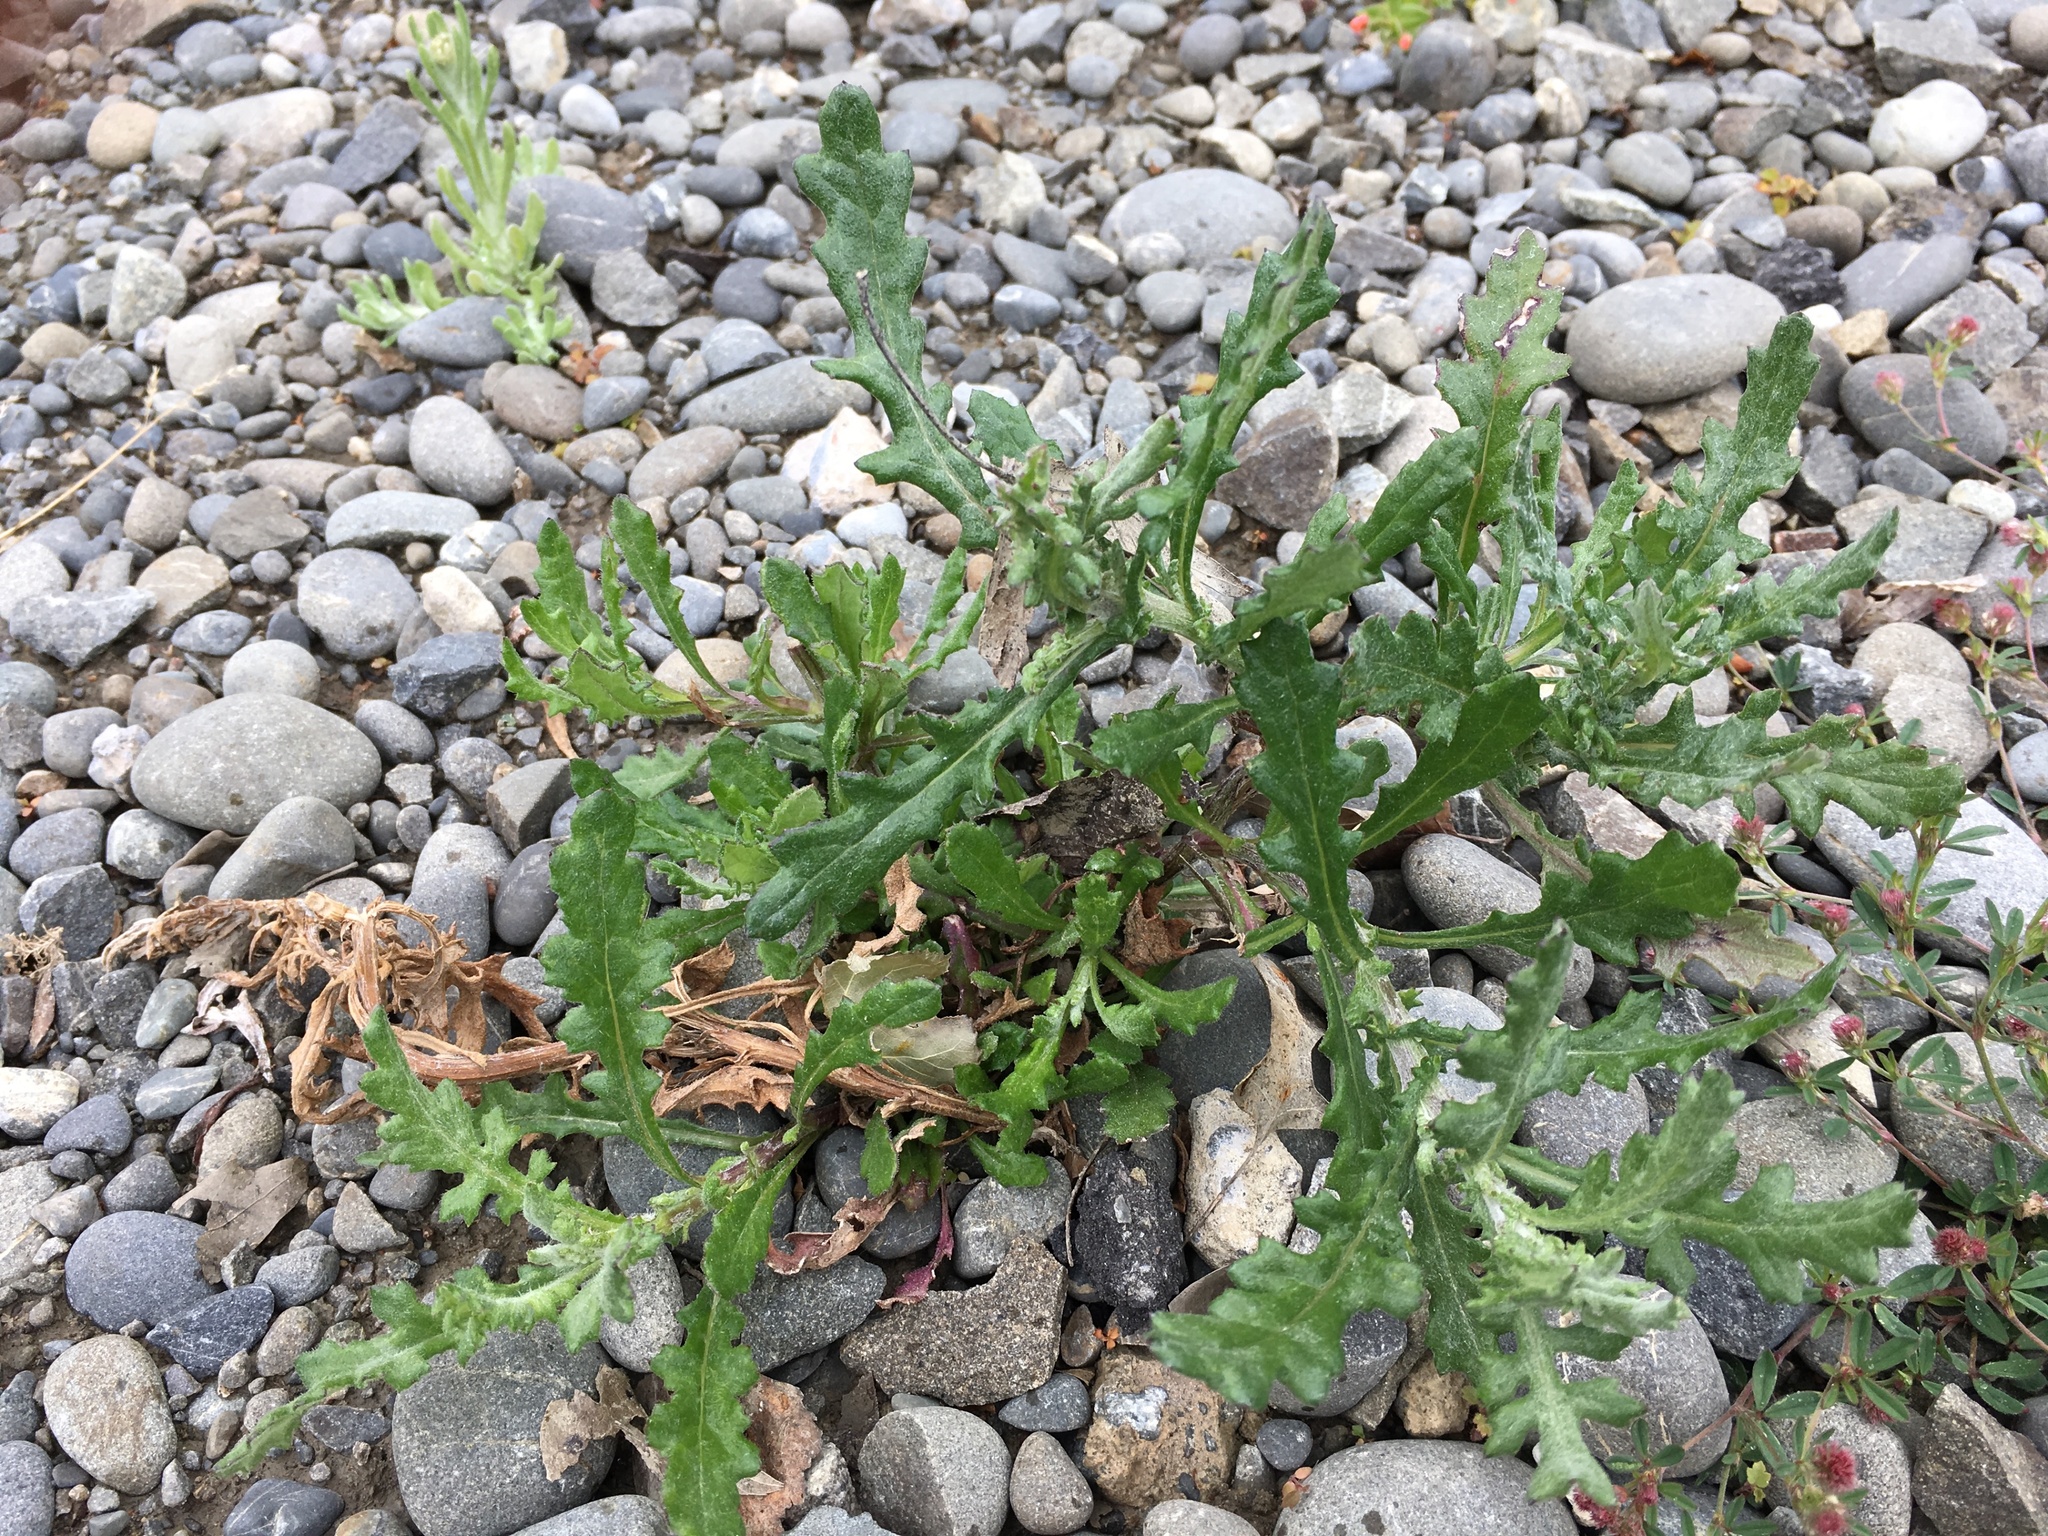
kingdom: Plantae
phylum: Tracheophyta
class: Magnoliopsida
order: Asterales
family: Asteraceae
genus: Senecio
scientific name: Senecio glomeratus
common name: Cutleaf burnweed
